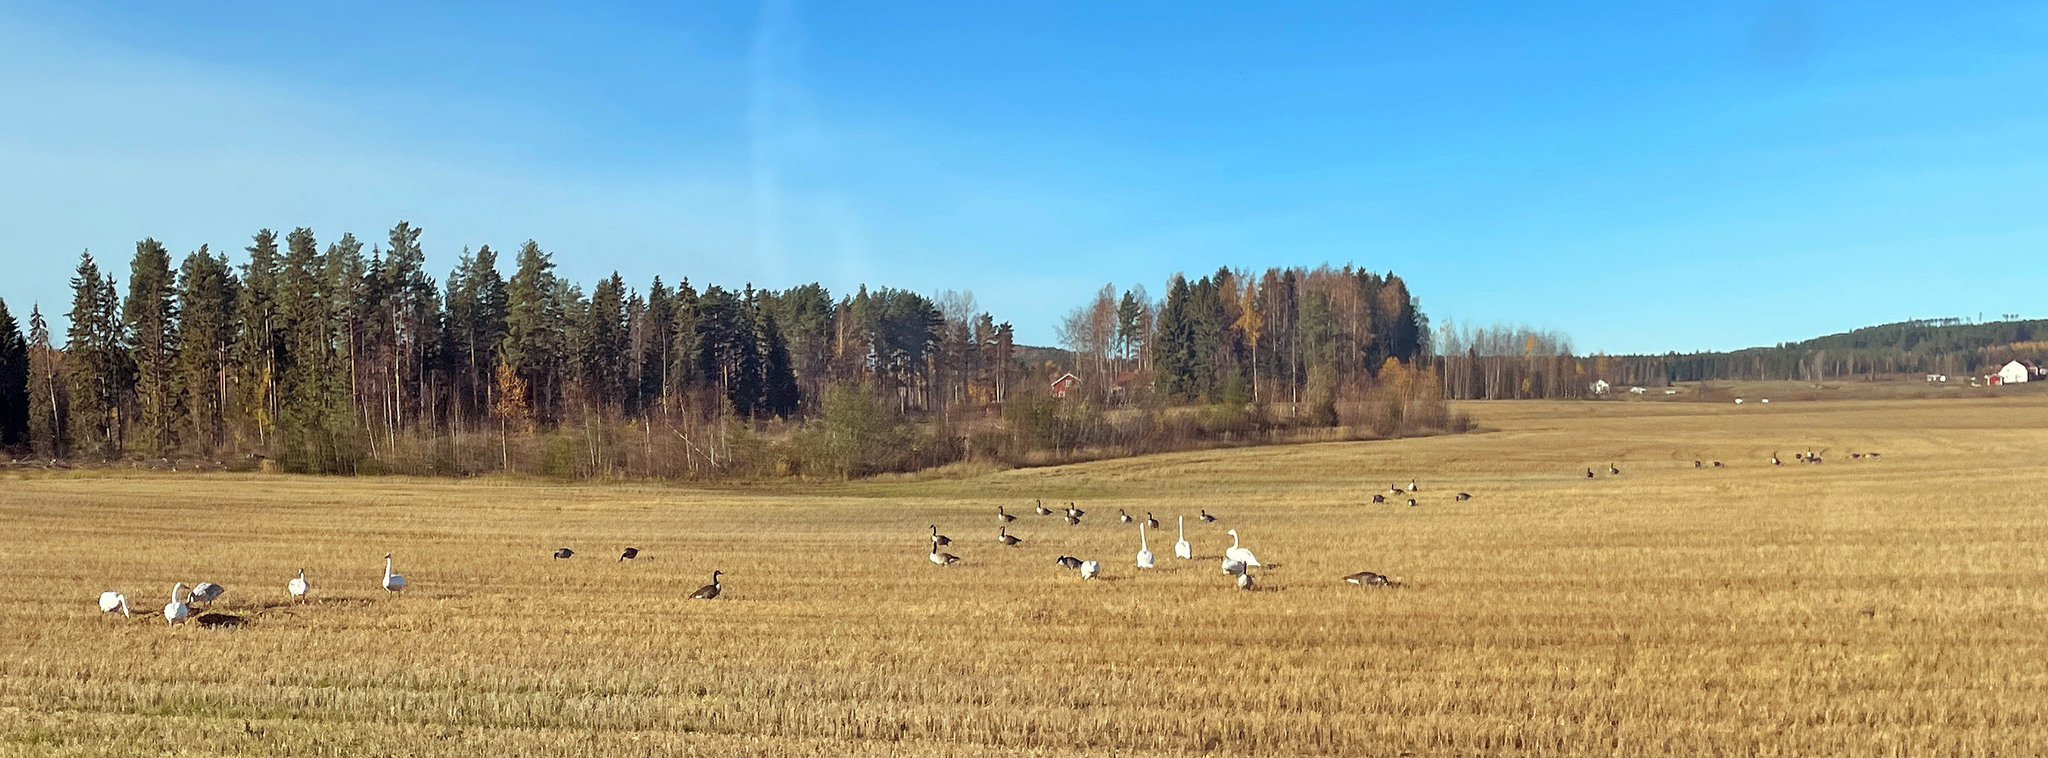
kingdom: Animalia
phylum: Chordata
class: Aves
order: Anseriformes
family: Anatidae
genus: Branta
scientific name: Branta canadensis
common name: Canada goose
